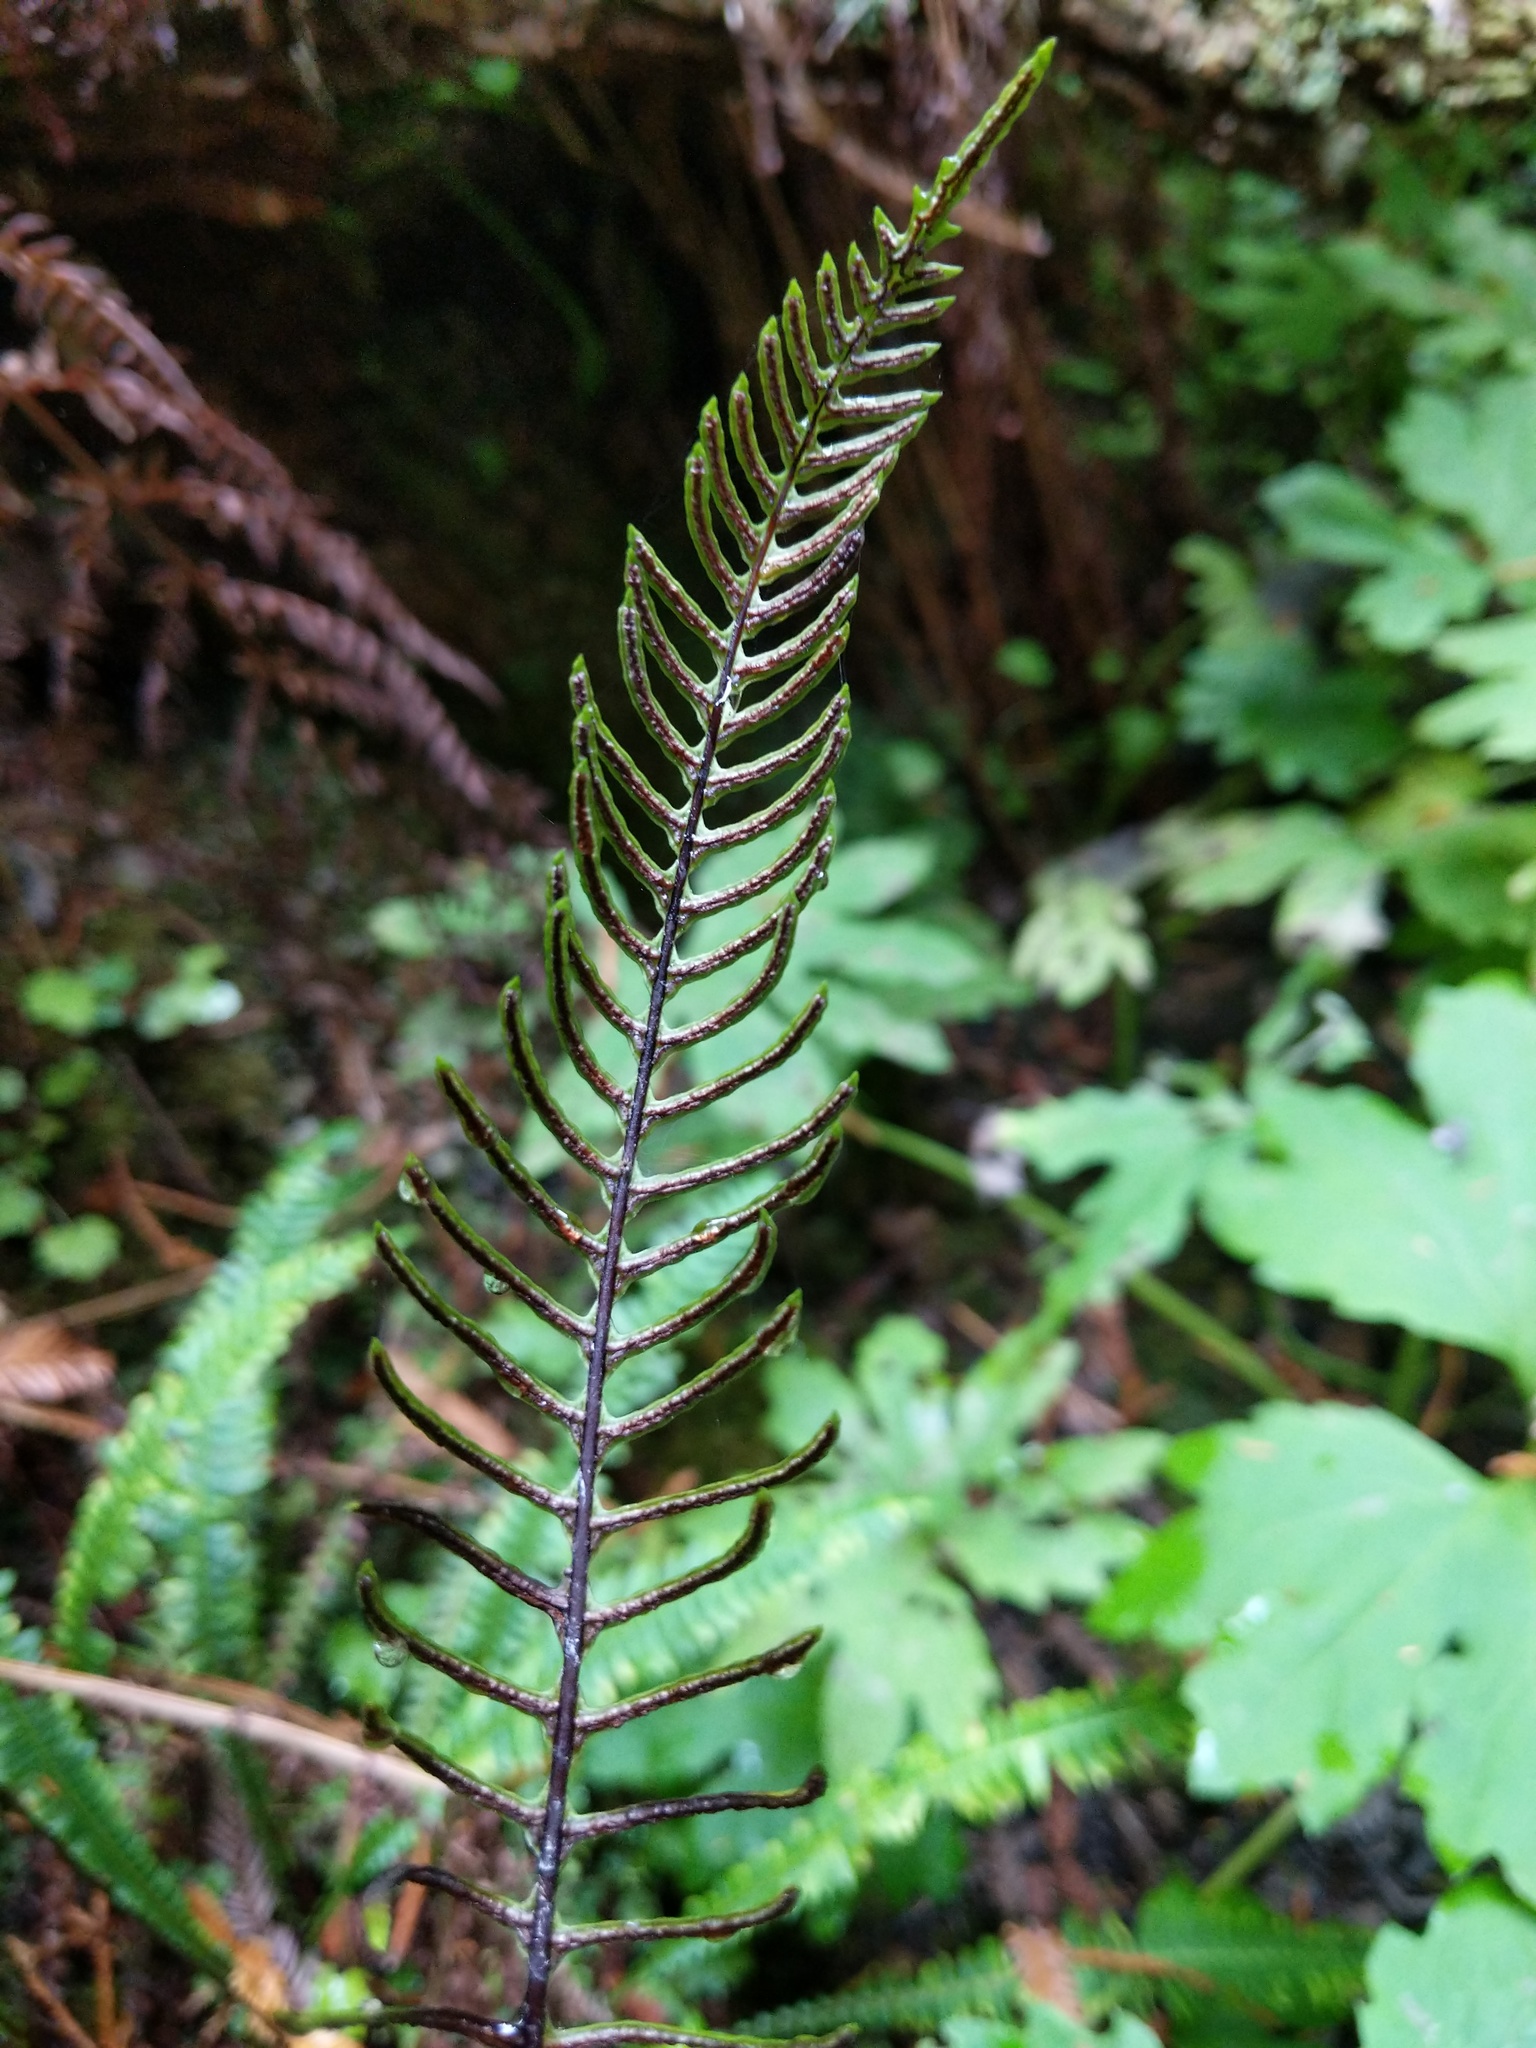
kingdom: Plantae
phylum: Tracheophyta
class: Polypodiopsida
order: Polypodiales
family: Blechnaceae
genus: Struthiopteris
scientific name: Struthiopteris spicant
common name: Deer fern
